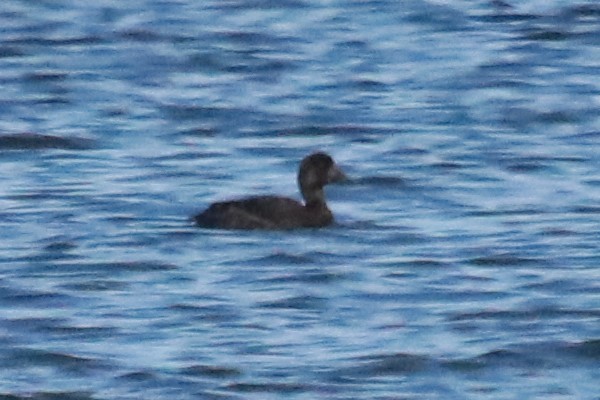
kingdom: Animalia
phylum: Chordata
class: Aves
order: Anseriformes
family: Anatidae
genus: Aythya
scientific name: Aythya marila
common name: Greater scaup
